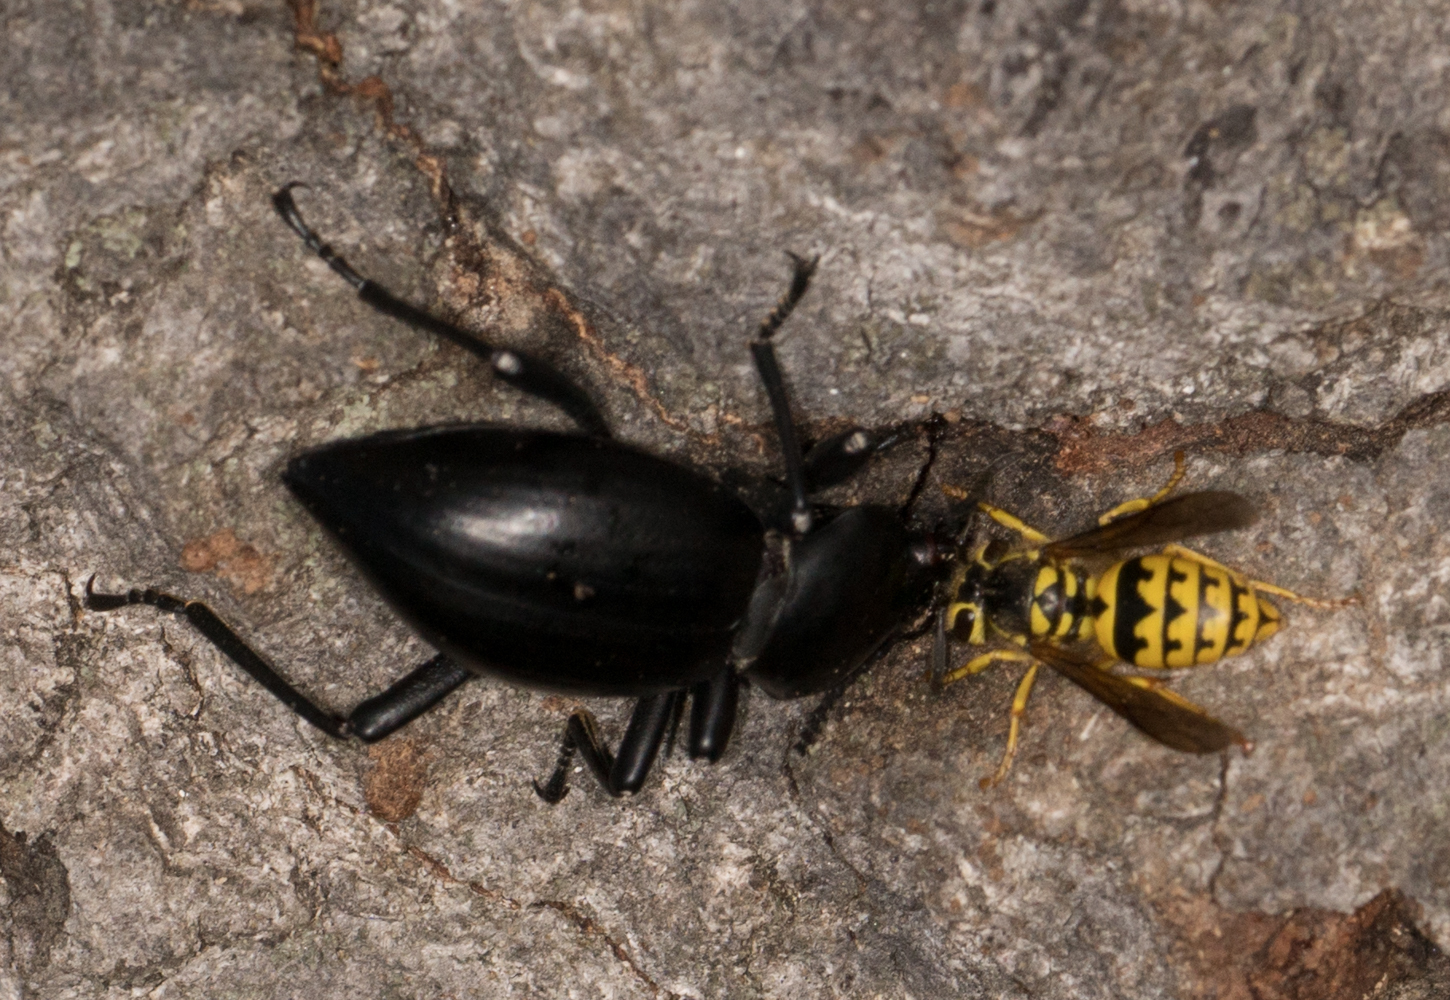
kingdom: Animalia
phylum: Arthropoda
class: Insecta
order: Hymenoptera
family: Vespidae
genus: Vespula
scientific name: Vespula pensylvanica
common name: Western yellowjacket
